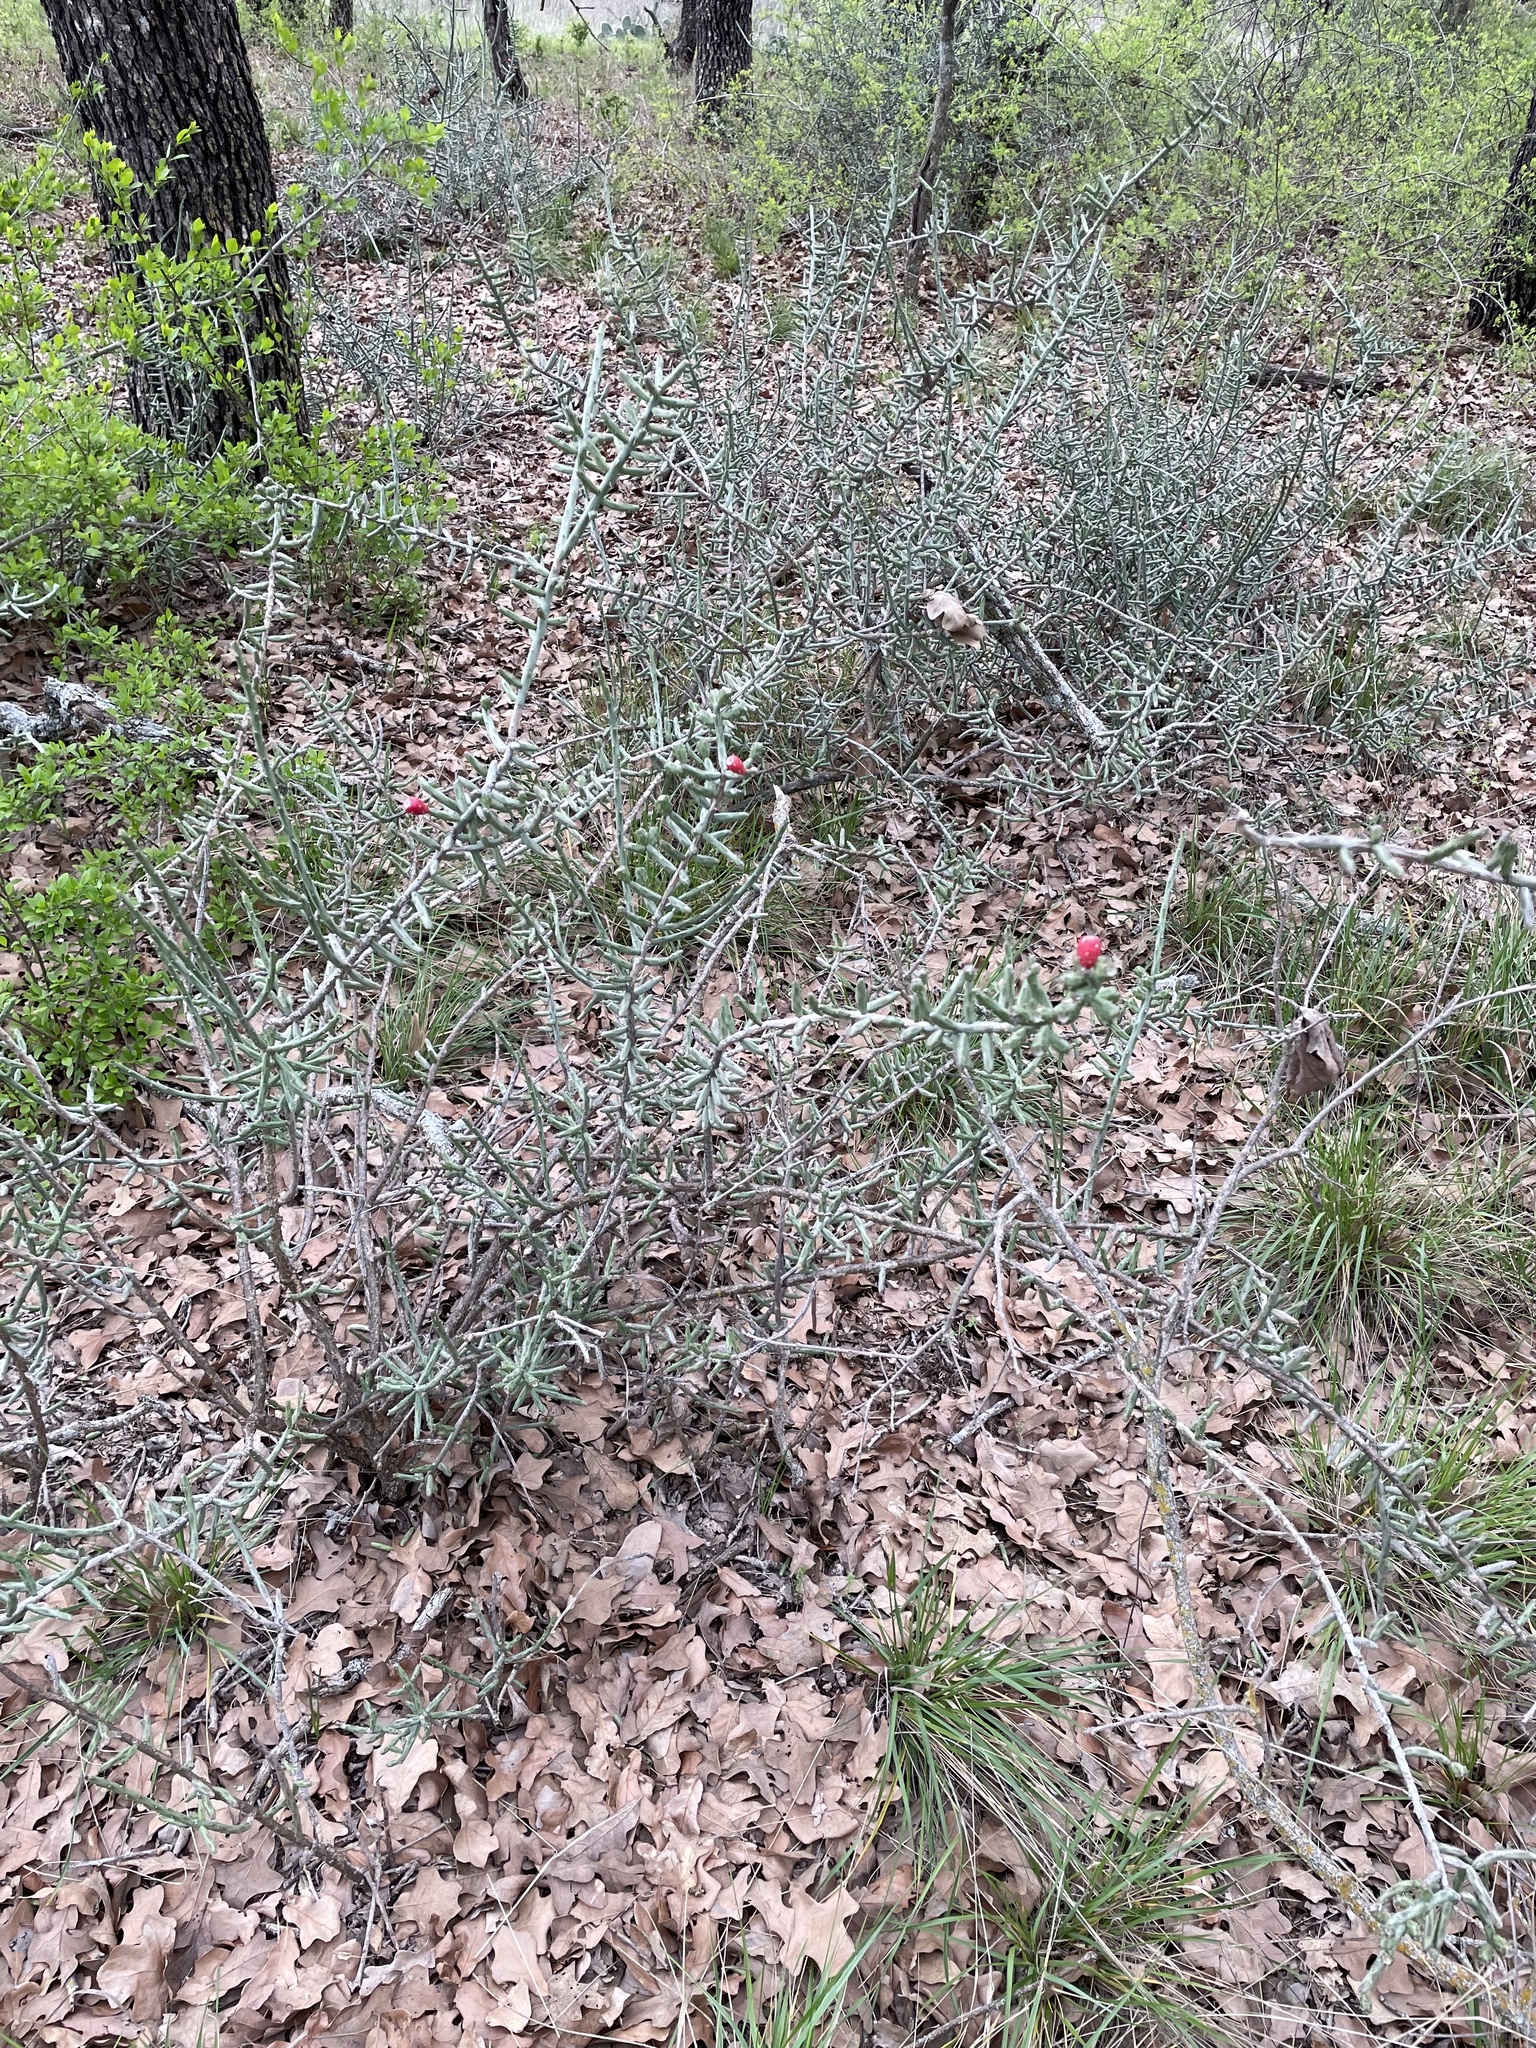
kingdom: Plantae
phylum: Tracheophyta
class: Magnoliopsida
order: Caryophyllales
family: Cactaceae
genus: Cylindropuntia
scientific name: Cylindropuntia leptocaulis
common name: Christmas cactus
